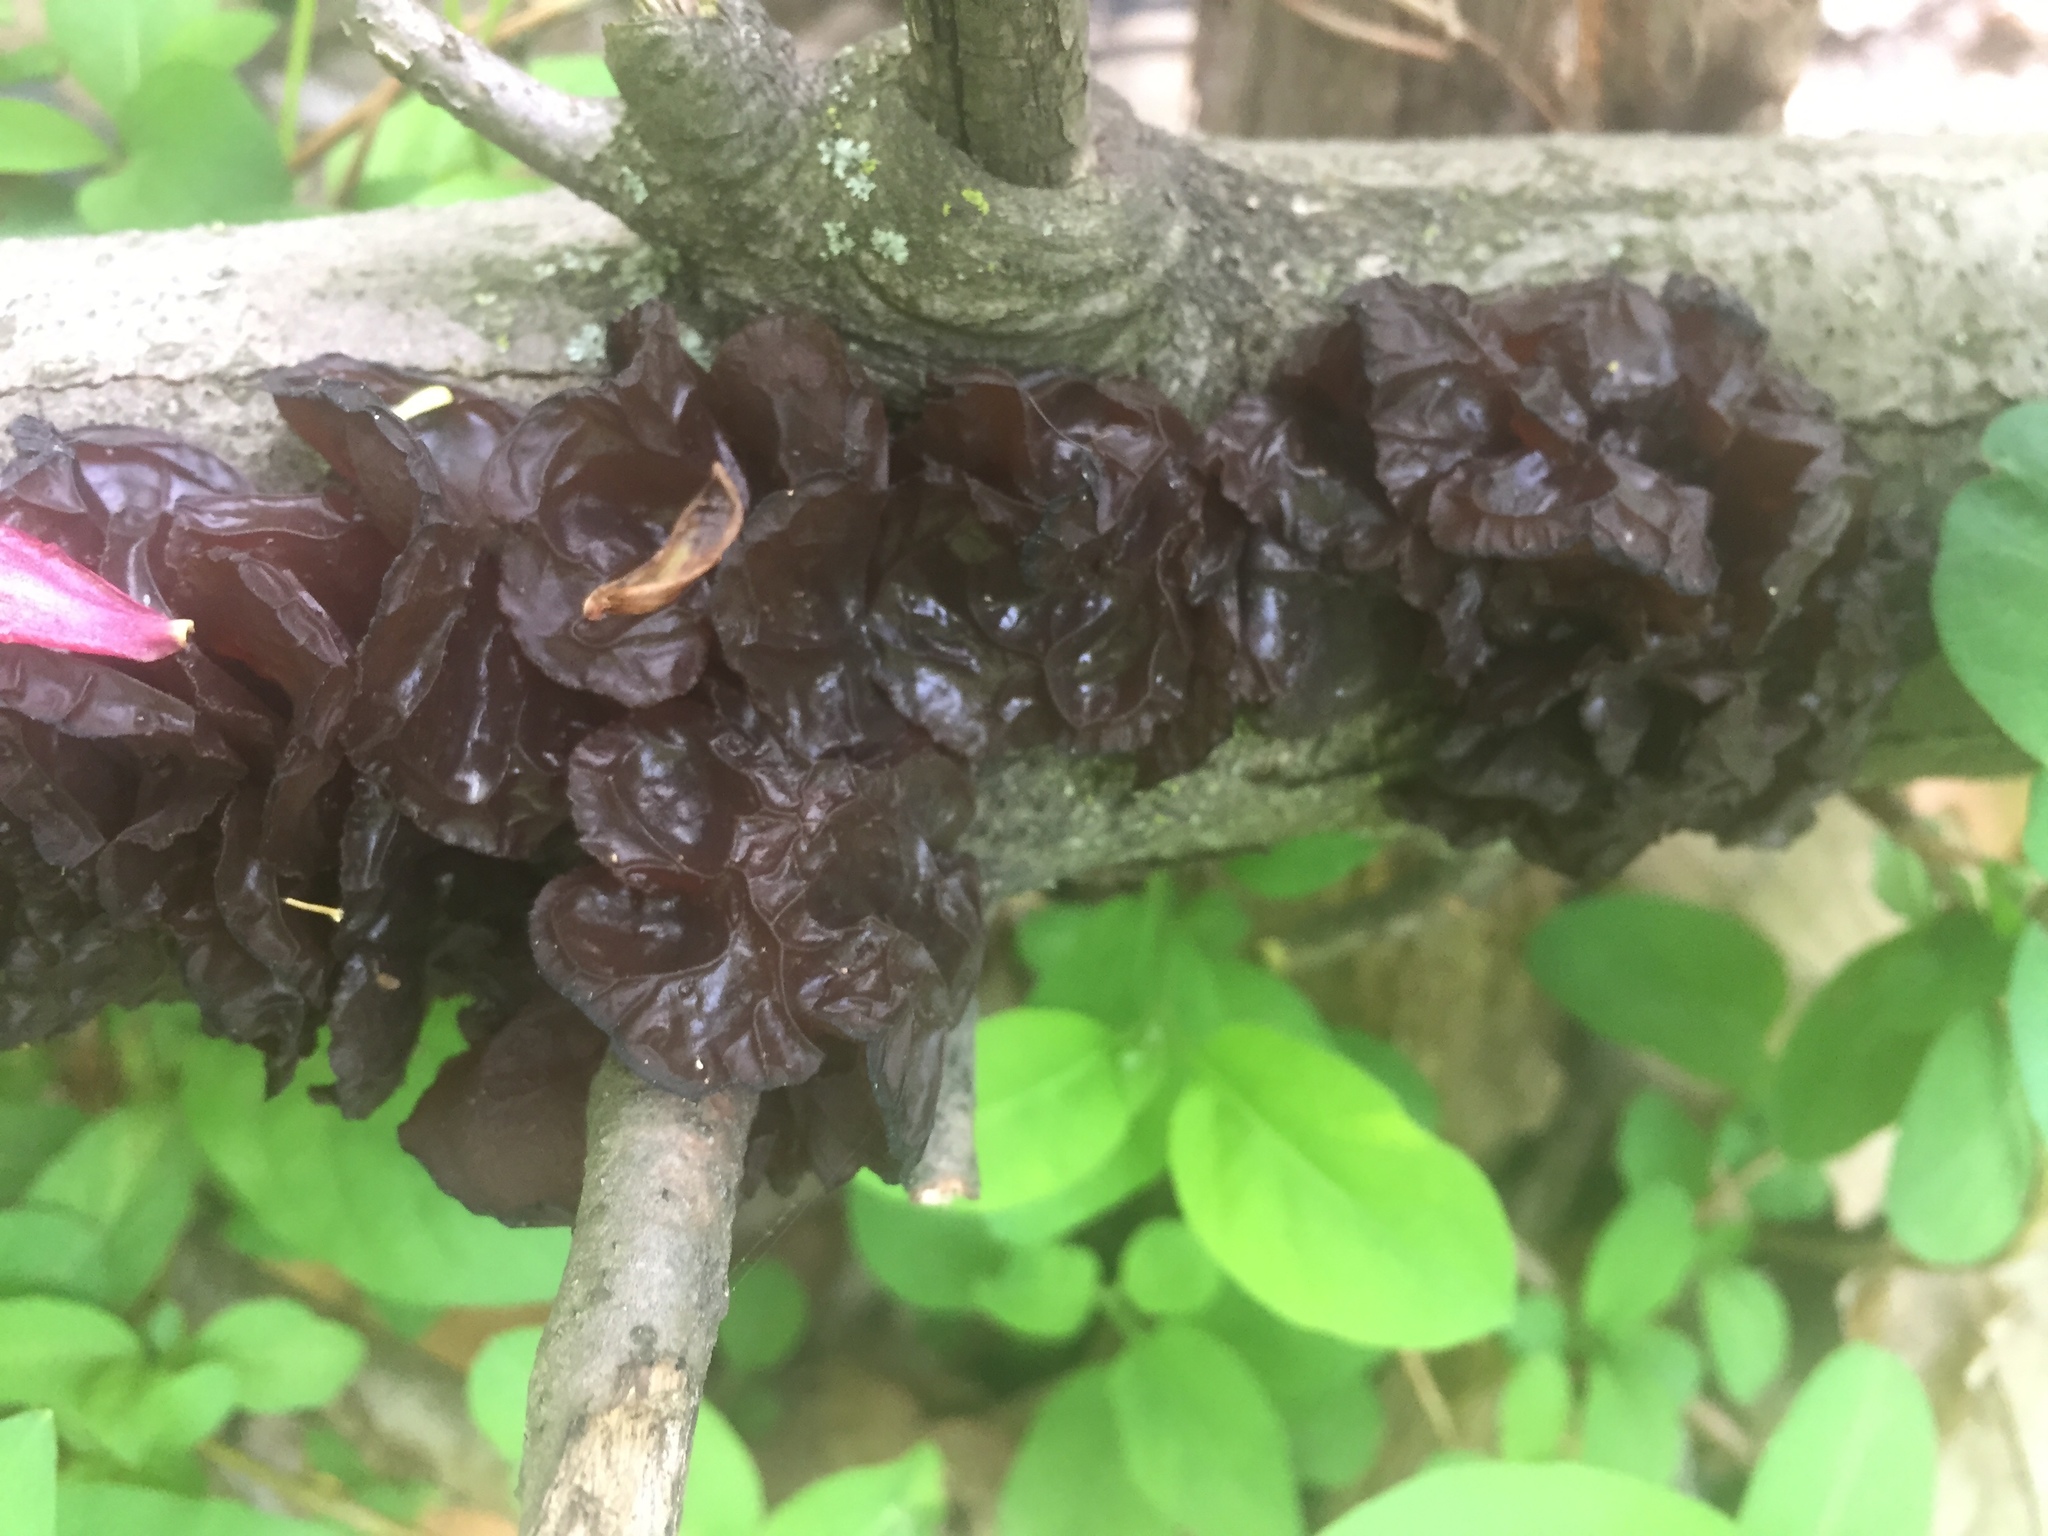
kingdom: Fungi
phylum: Basidiomycota
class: Agaricomycetes
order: Auriculariales
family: Auriculariaceae
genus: Exidia
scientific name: Exidia
